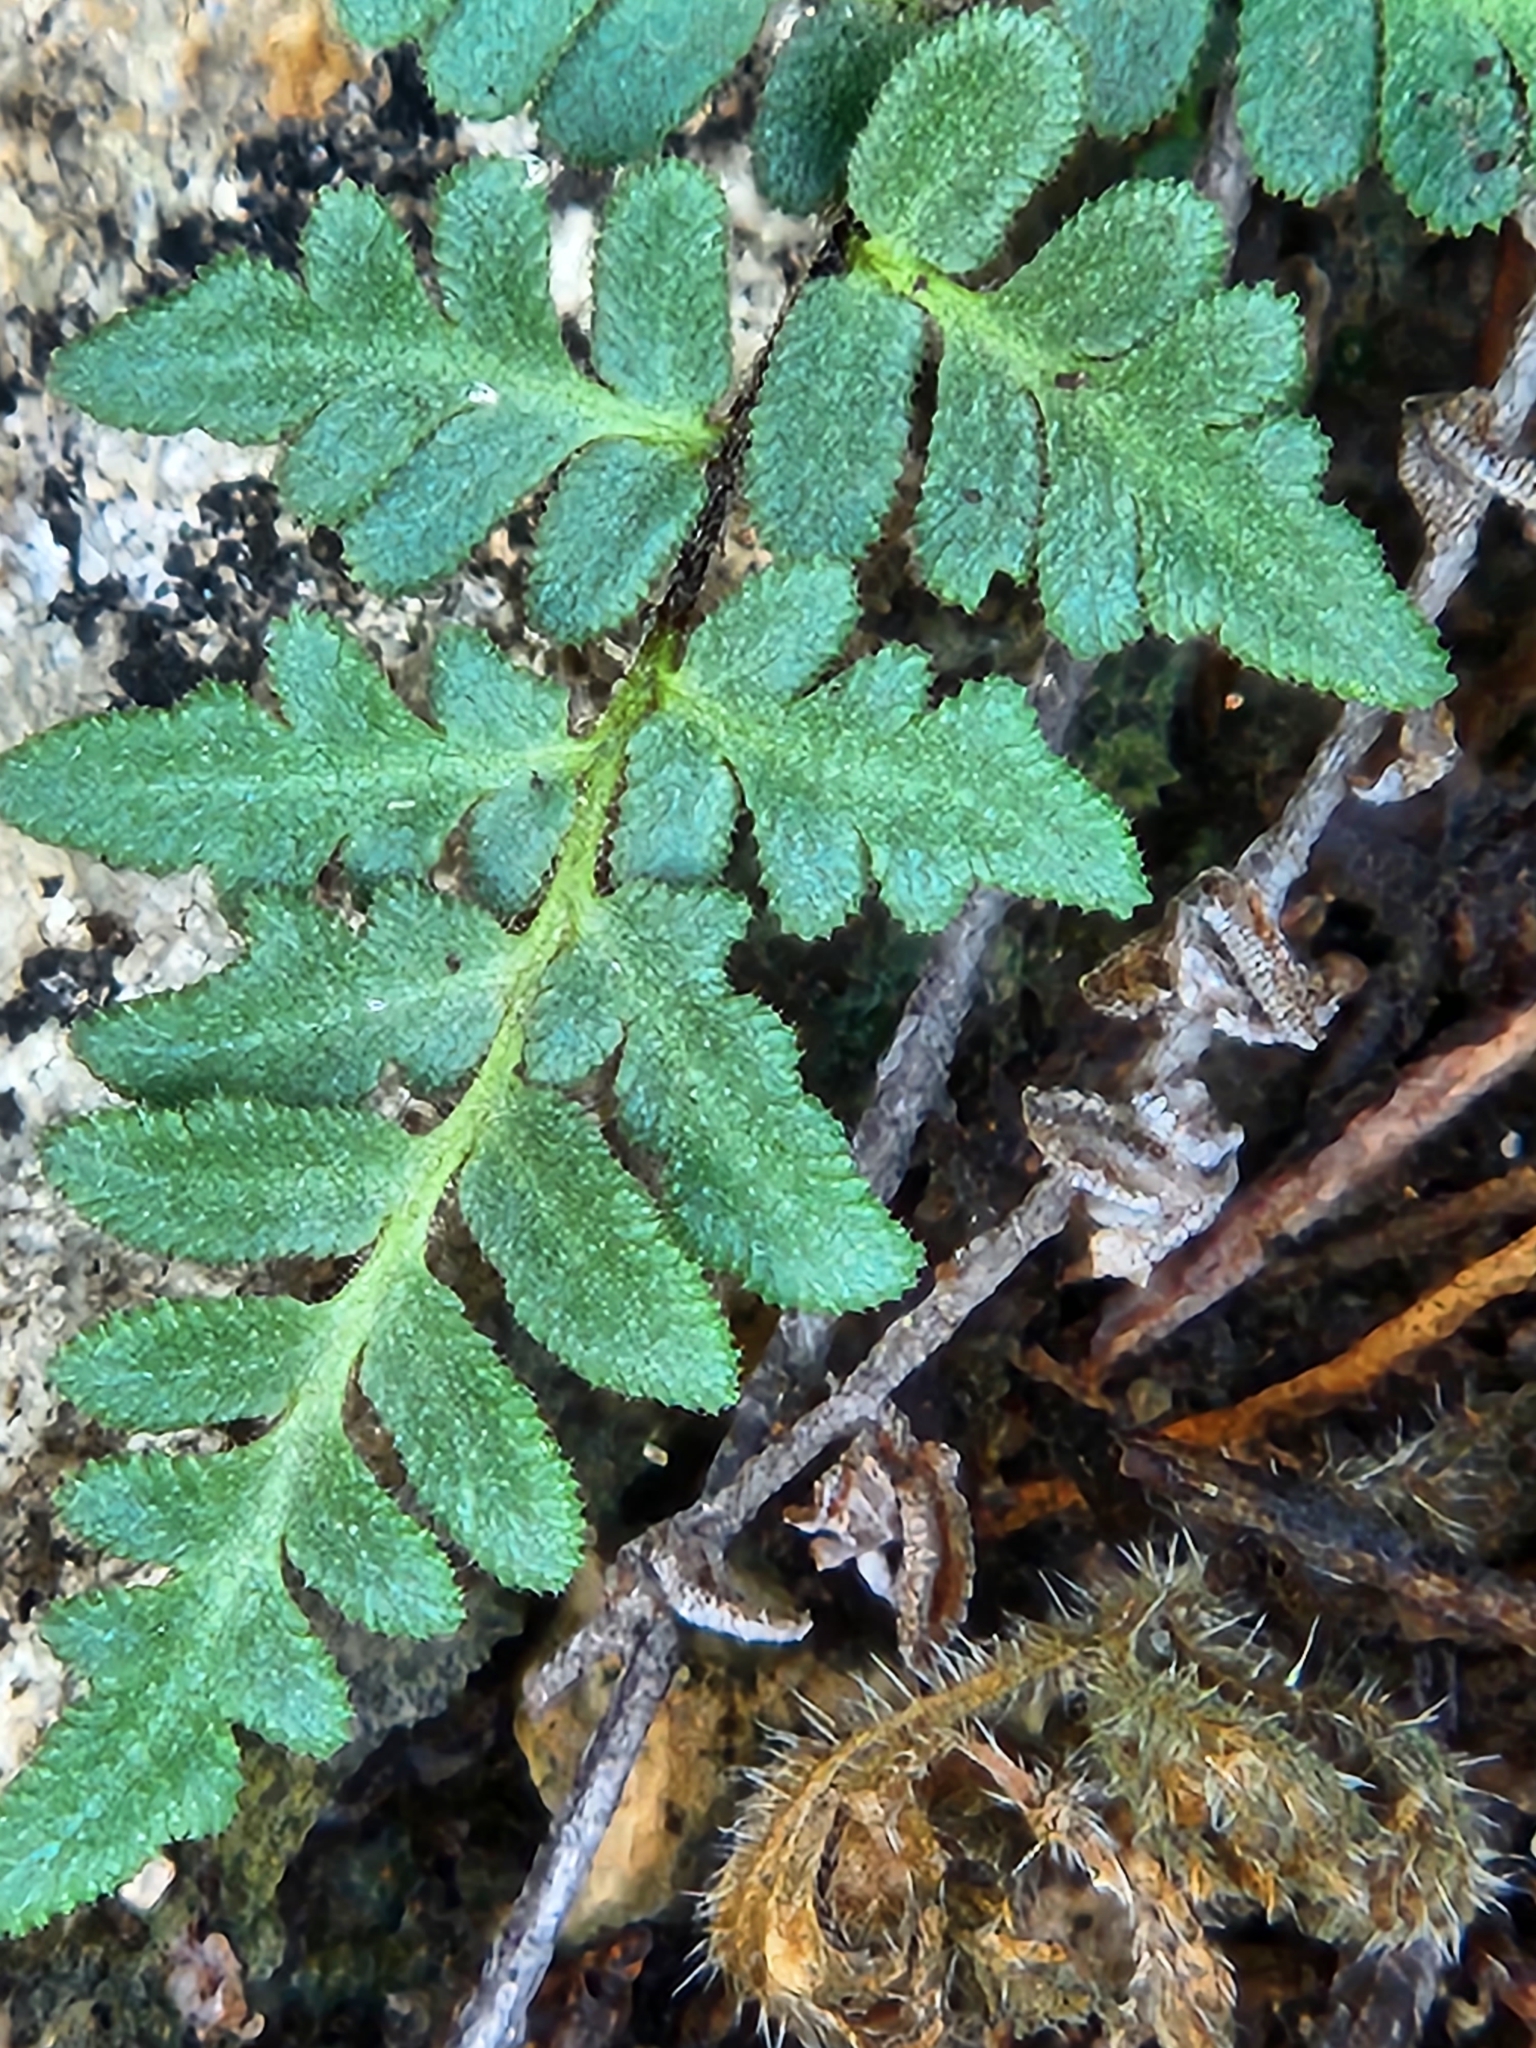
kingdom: Plantae
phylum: Tracheophyta
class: Polypodiopsida
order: Polypodiales
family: Pteridaceae
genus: Myriopteris
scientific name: Myriopteris scabra
